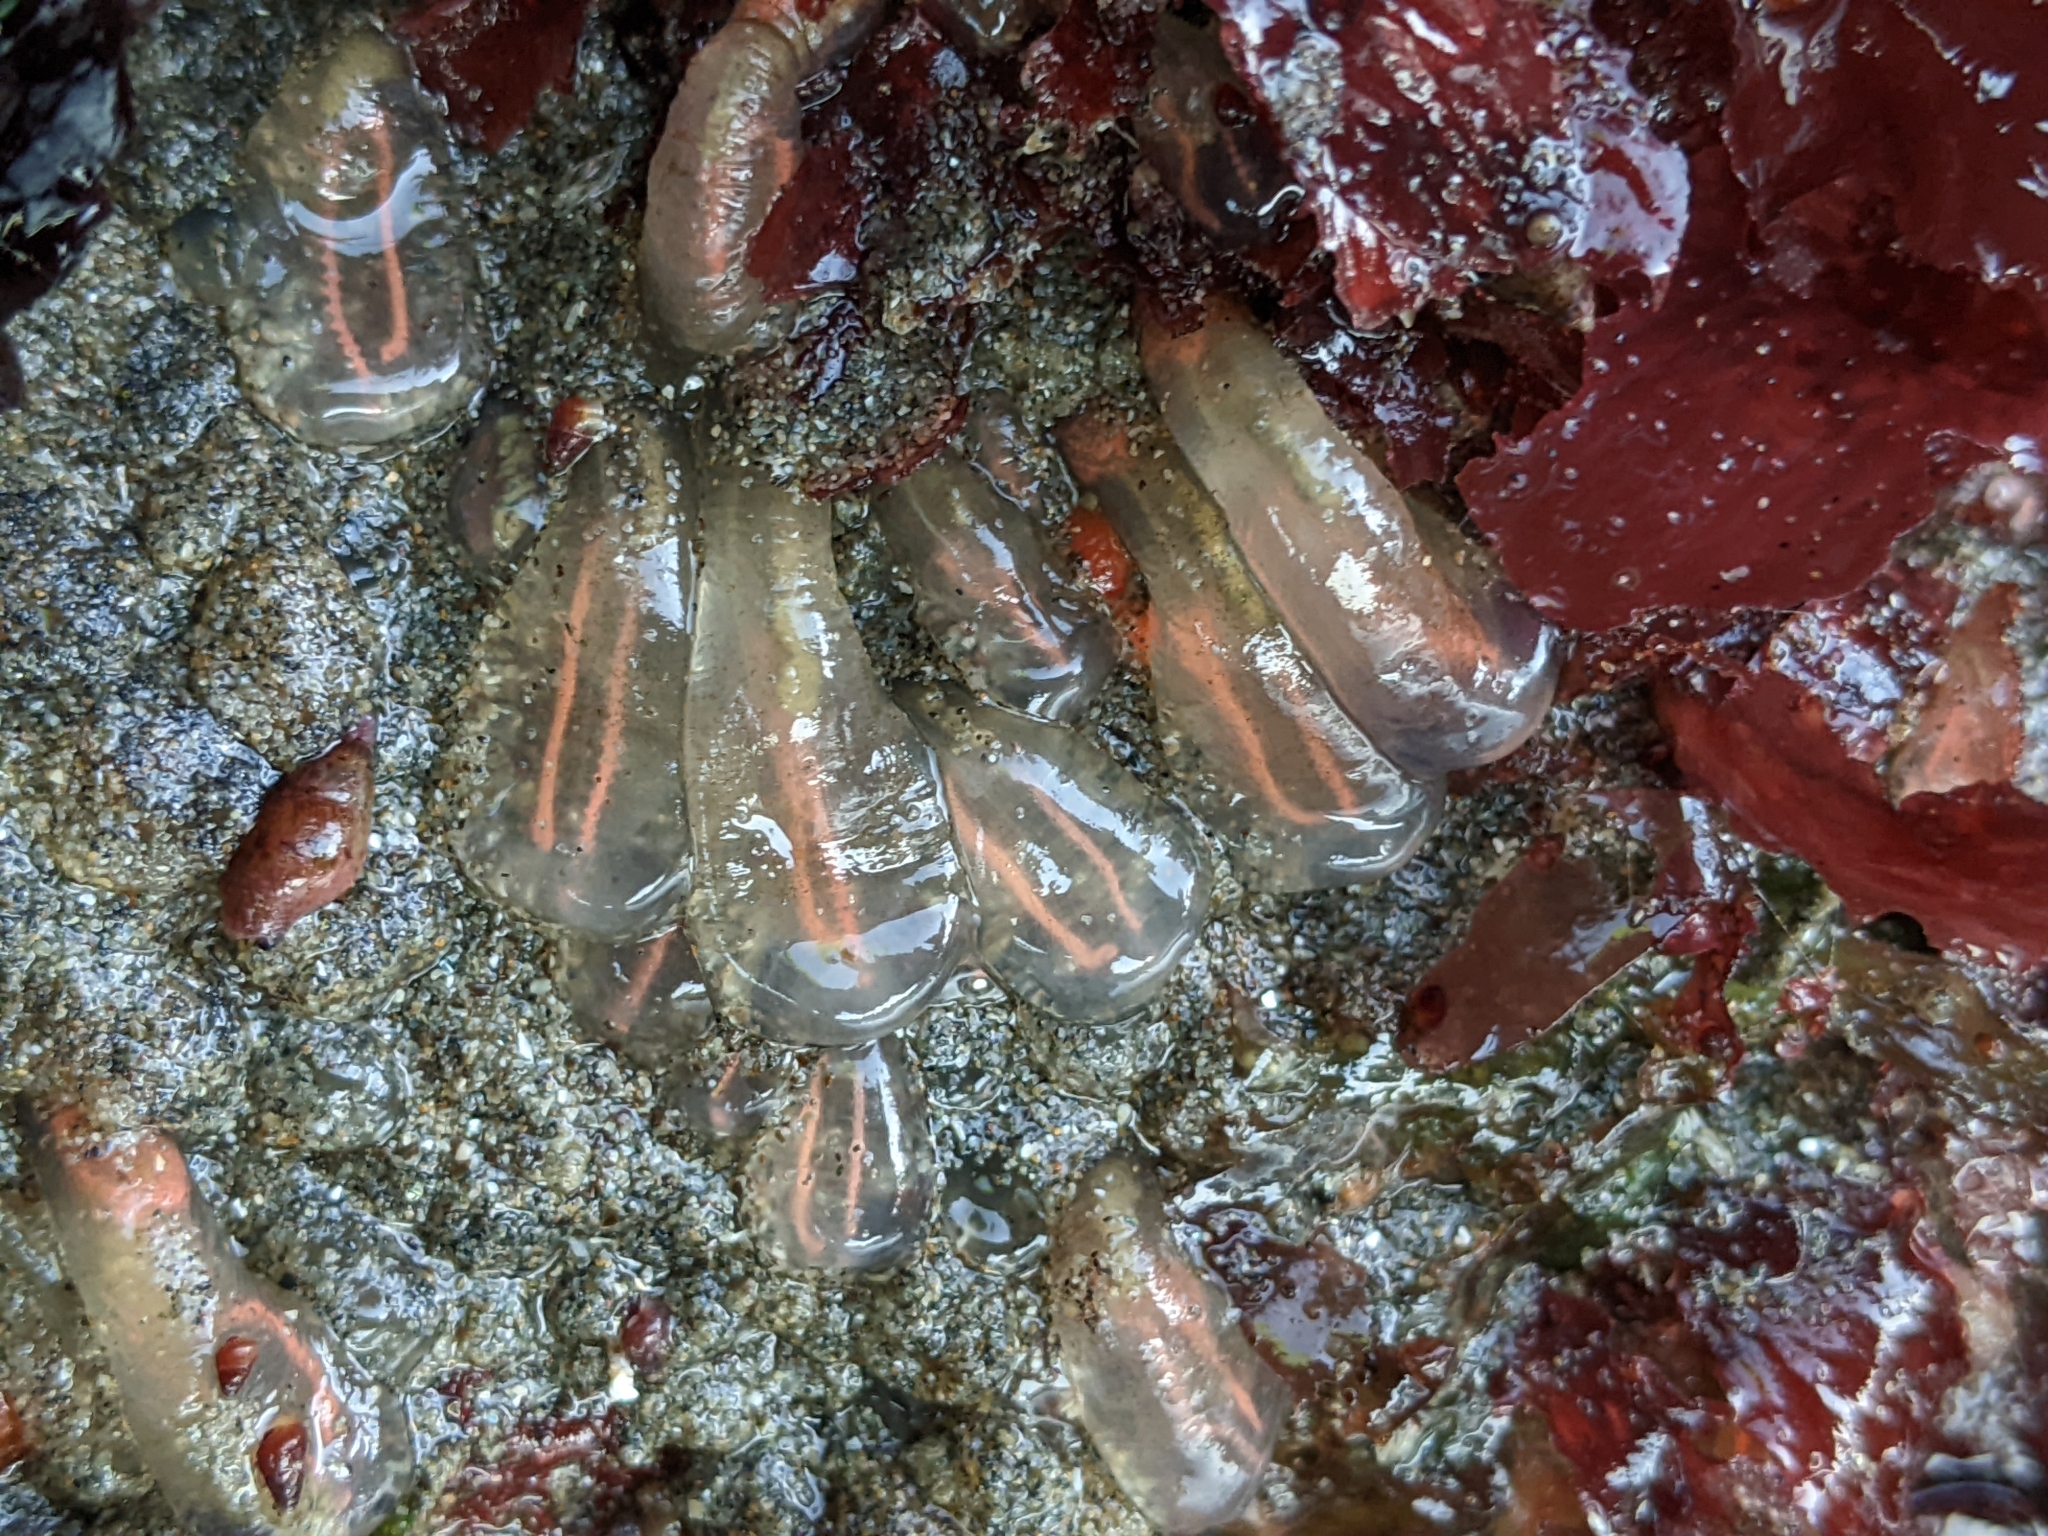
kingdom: Animalia
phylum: Chordata
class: Ascidiacea
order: Aplousobranchia
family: Clavelinidae
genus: Clavelina
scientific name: Clavelina huntsmani
